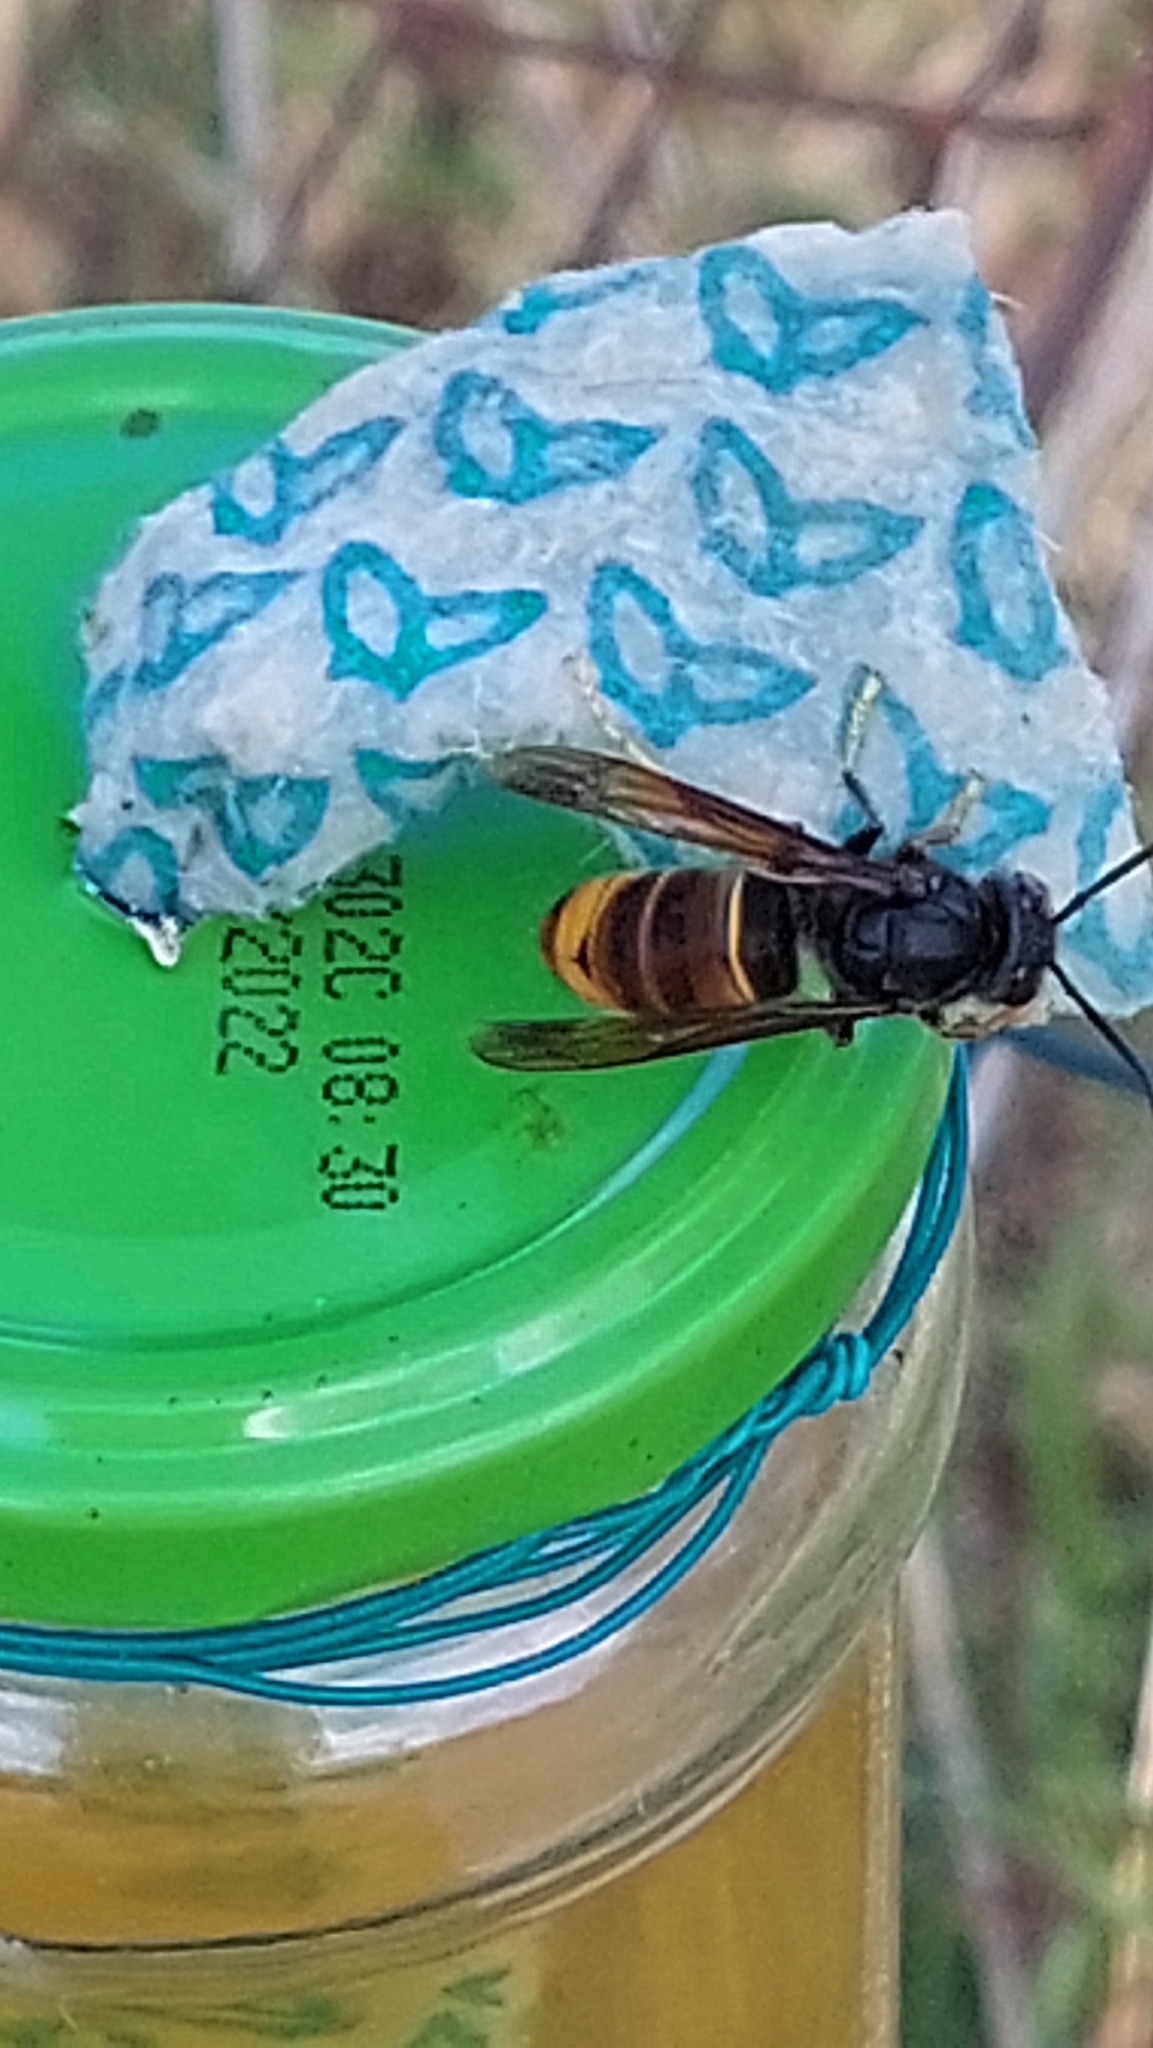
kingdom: Animalia
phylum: Arthropoda
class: Insecta
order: Hymenoptera
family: Vespidae
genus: Vespa
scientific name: Vespa velutina
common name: Asian hornet
